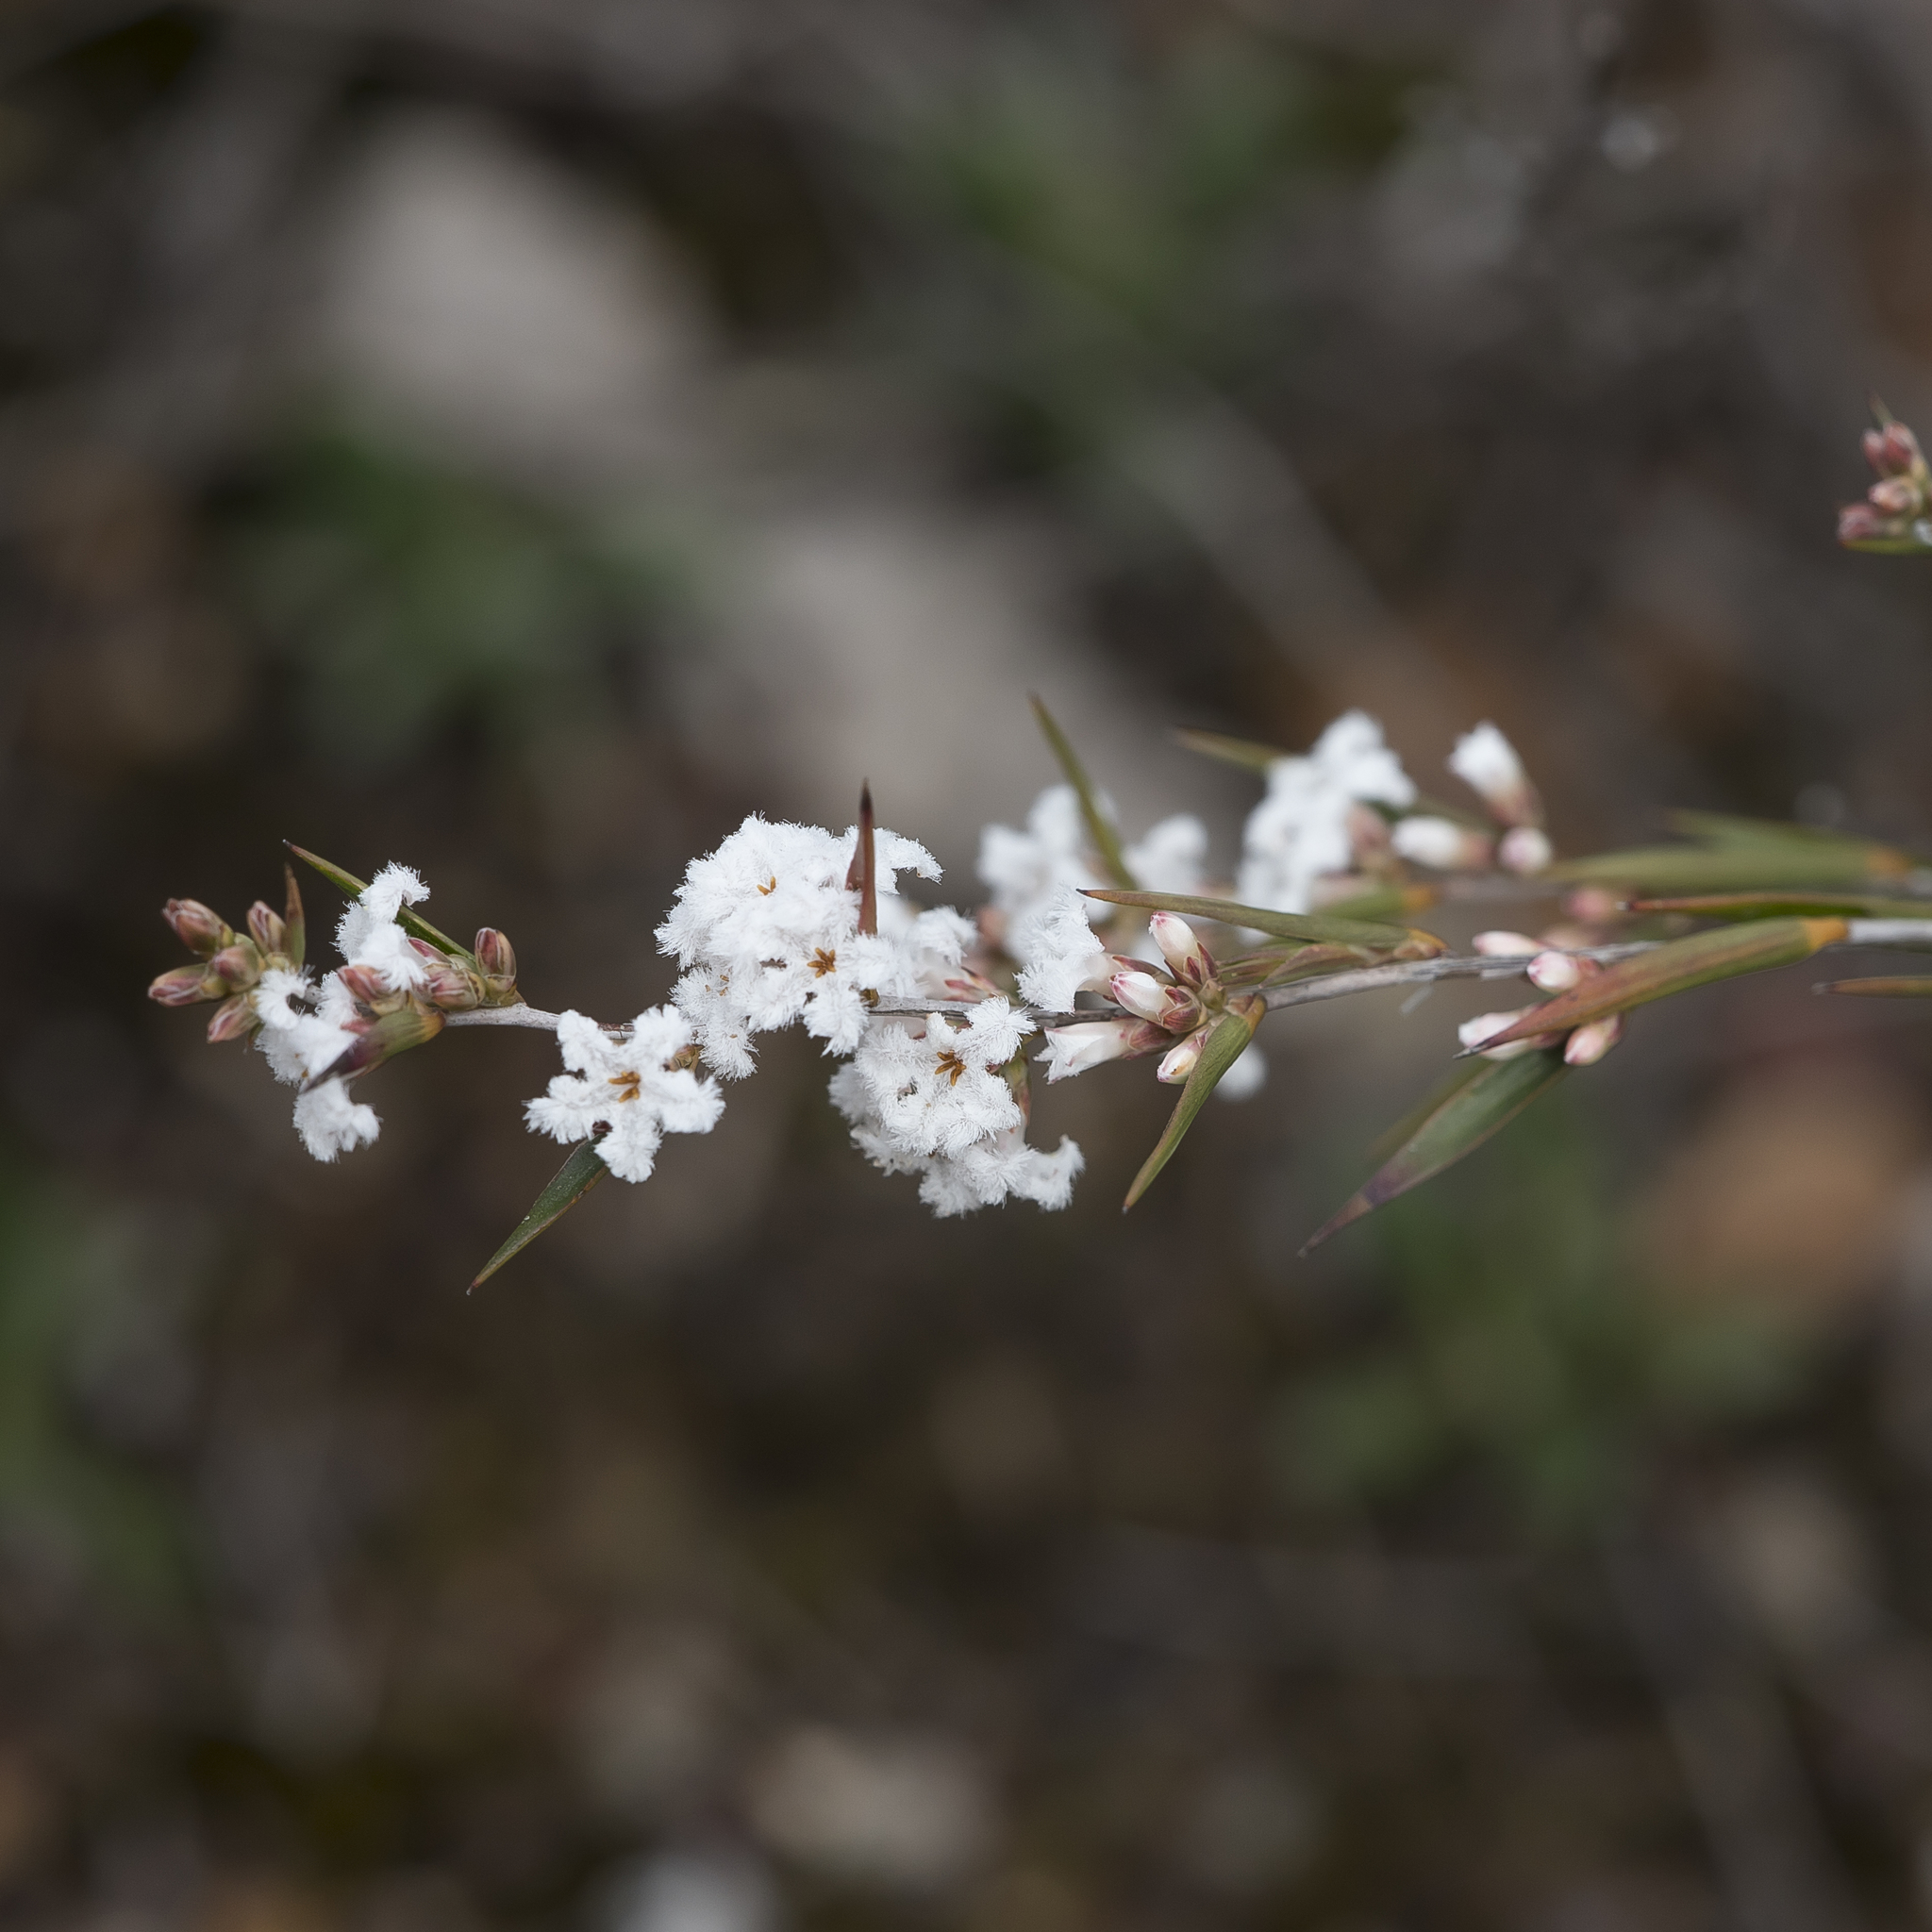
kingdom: Plantae
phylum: Tracheophyta
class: Magnoliopsida
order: Ericales
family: Ericaceae
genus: Leucopogon
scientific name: Leucopogon virgatus
